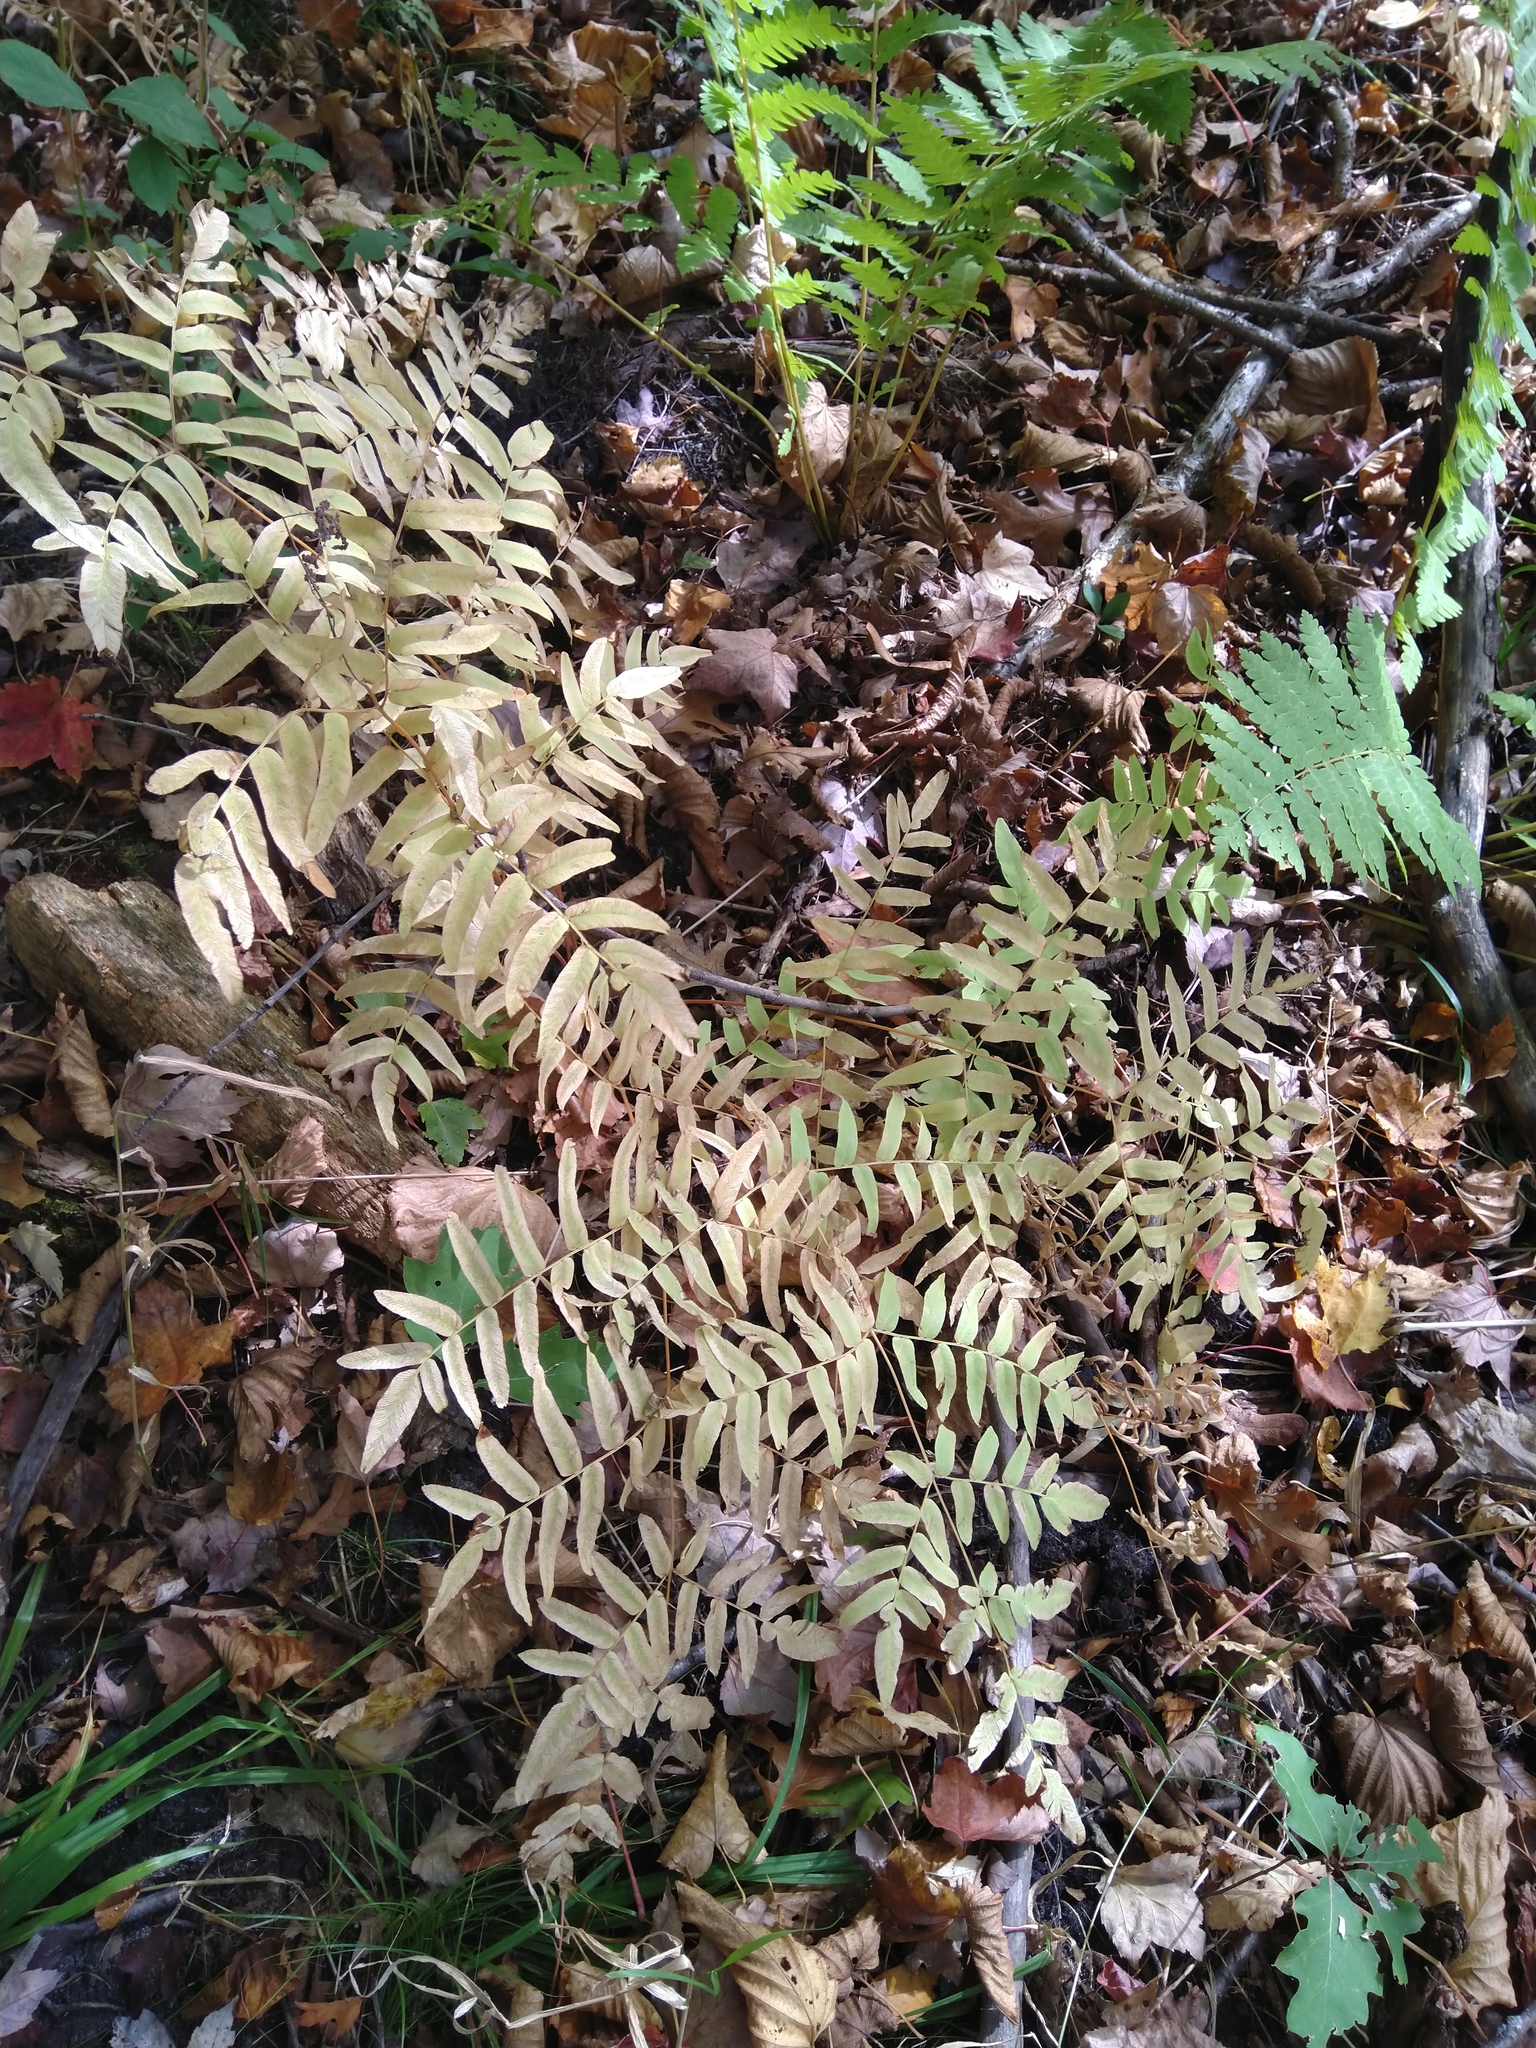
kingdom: Plantae
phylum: Tracheophyta
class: Polypodiopsida
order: Osmundales
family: Osmundaceae
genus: Osmunda
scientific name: Osmunda spectabilis
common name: American royal fern
